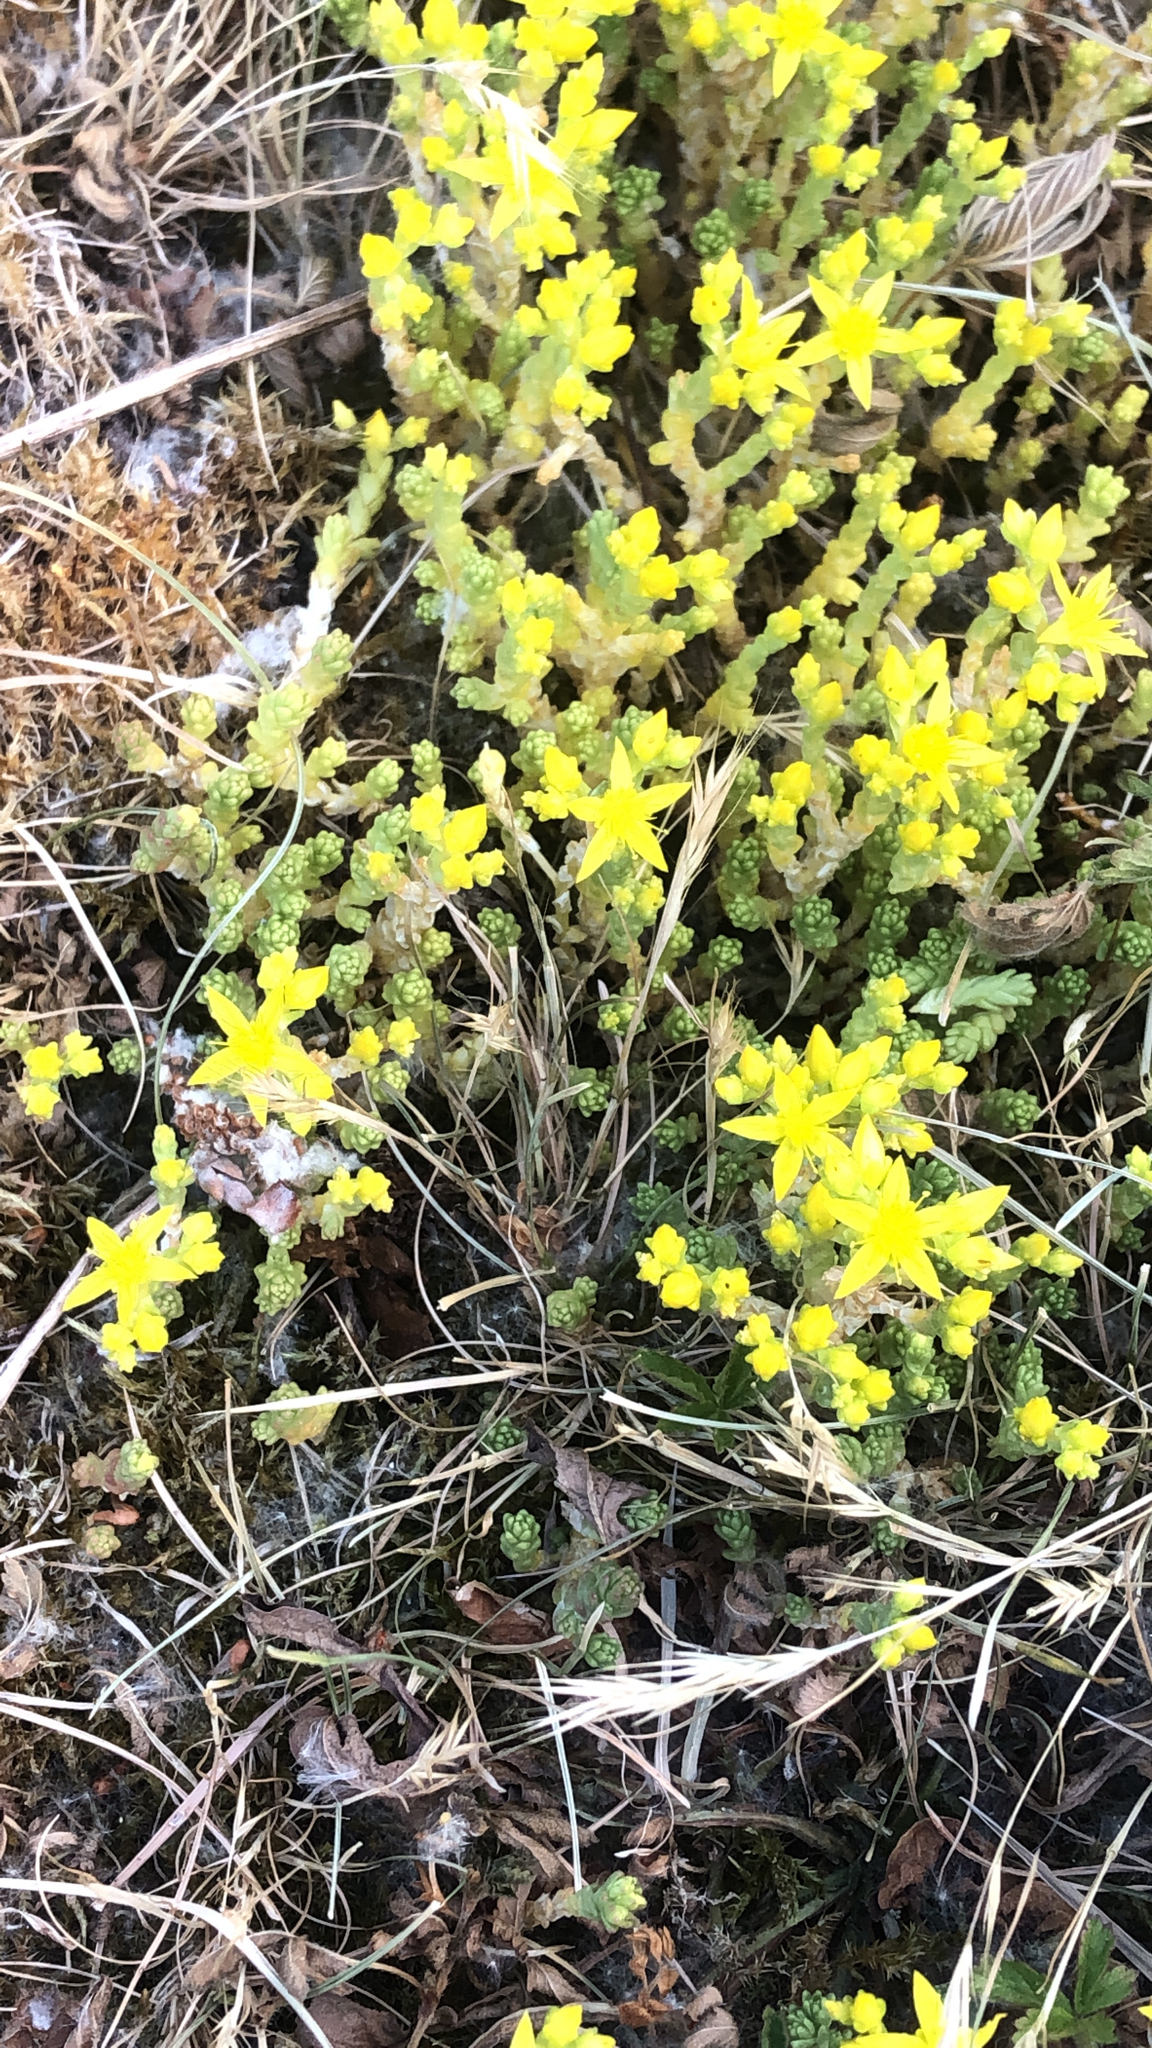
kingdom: Plantae
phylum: Tracheophyta
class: Magnoliopsida
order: Saxifragales
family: Crassulaceae
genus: Sedum
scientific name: Sedum acre
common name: Biting stonecrop
